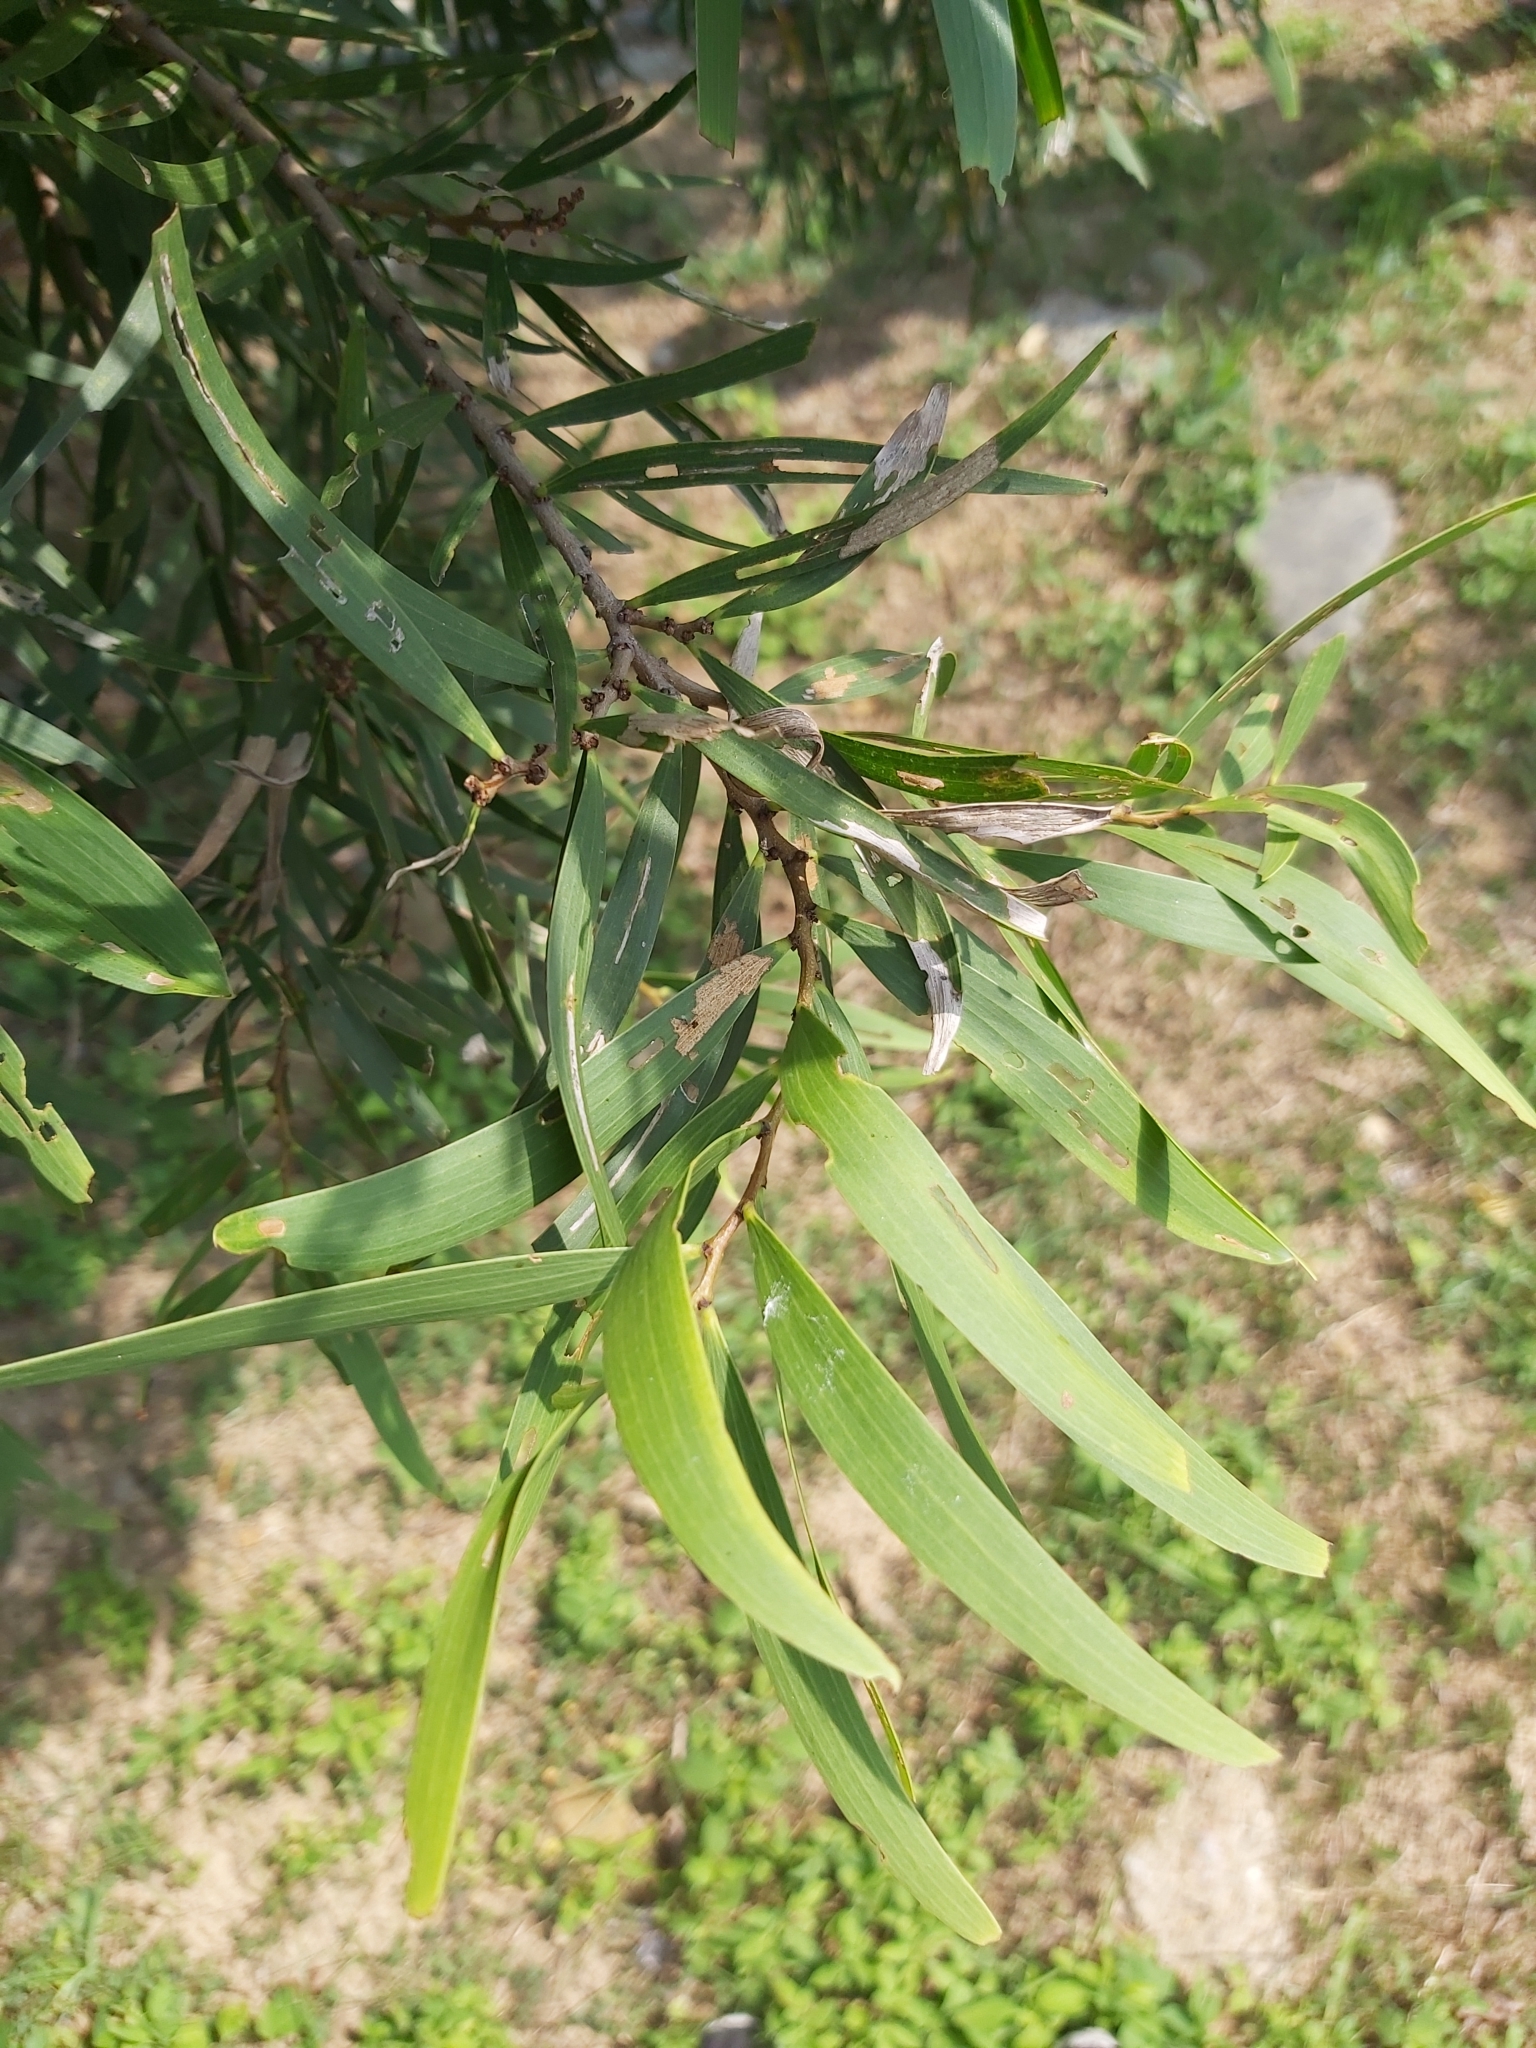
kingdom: Plantae
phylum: Tracheophyta
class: Magnoliopsida
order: Fabales
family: Fabaceae
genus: Acacia
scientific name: Acacia confusa
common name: Formosan koa
